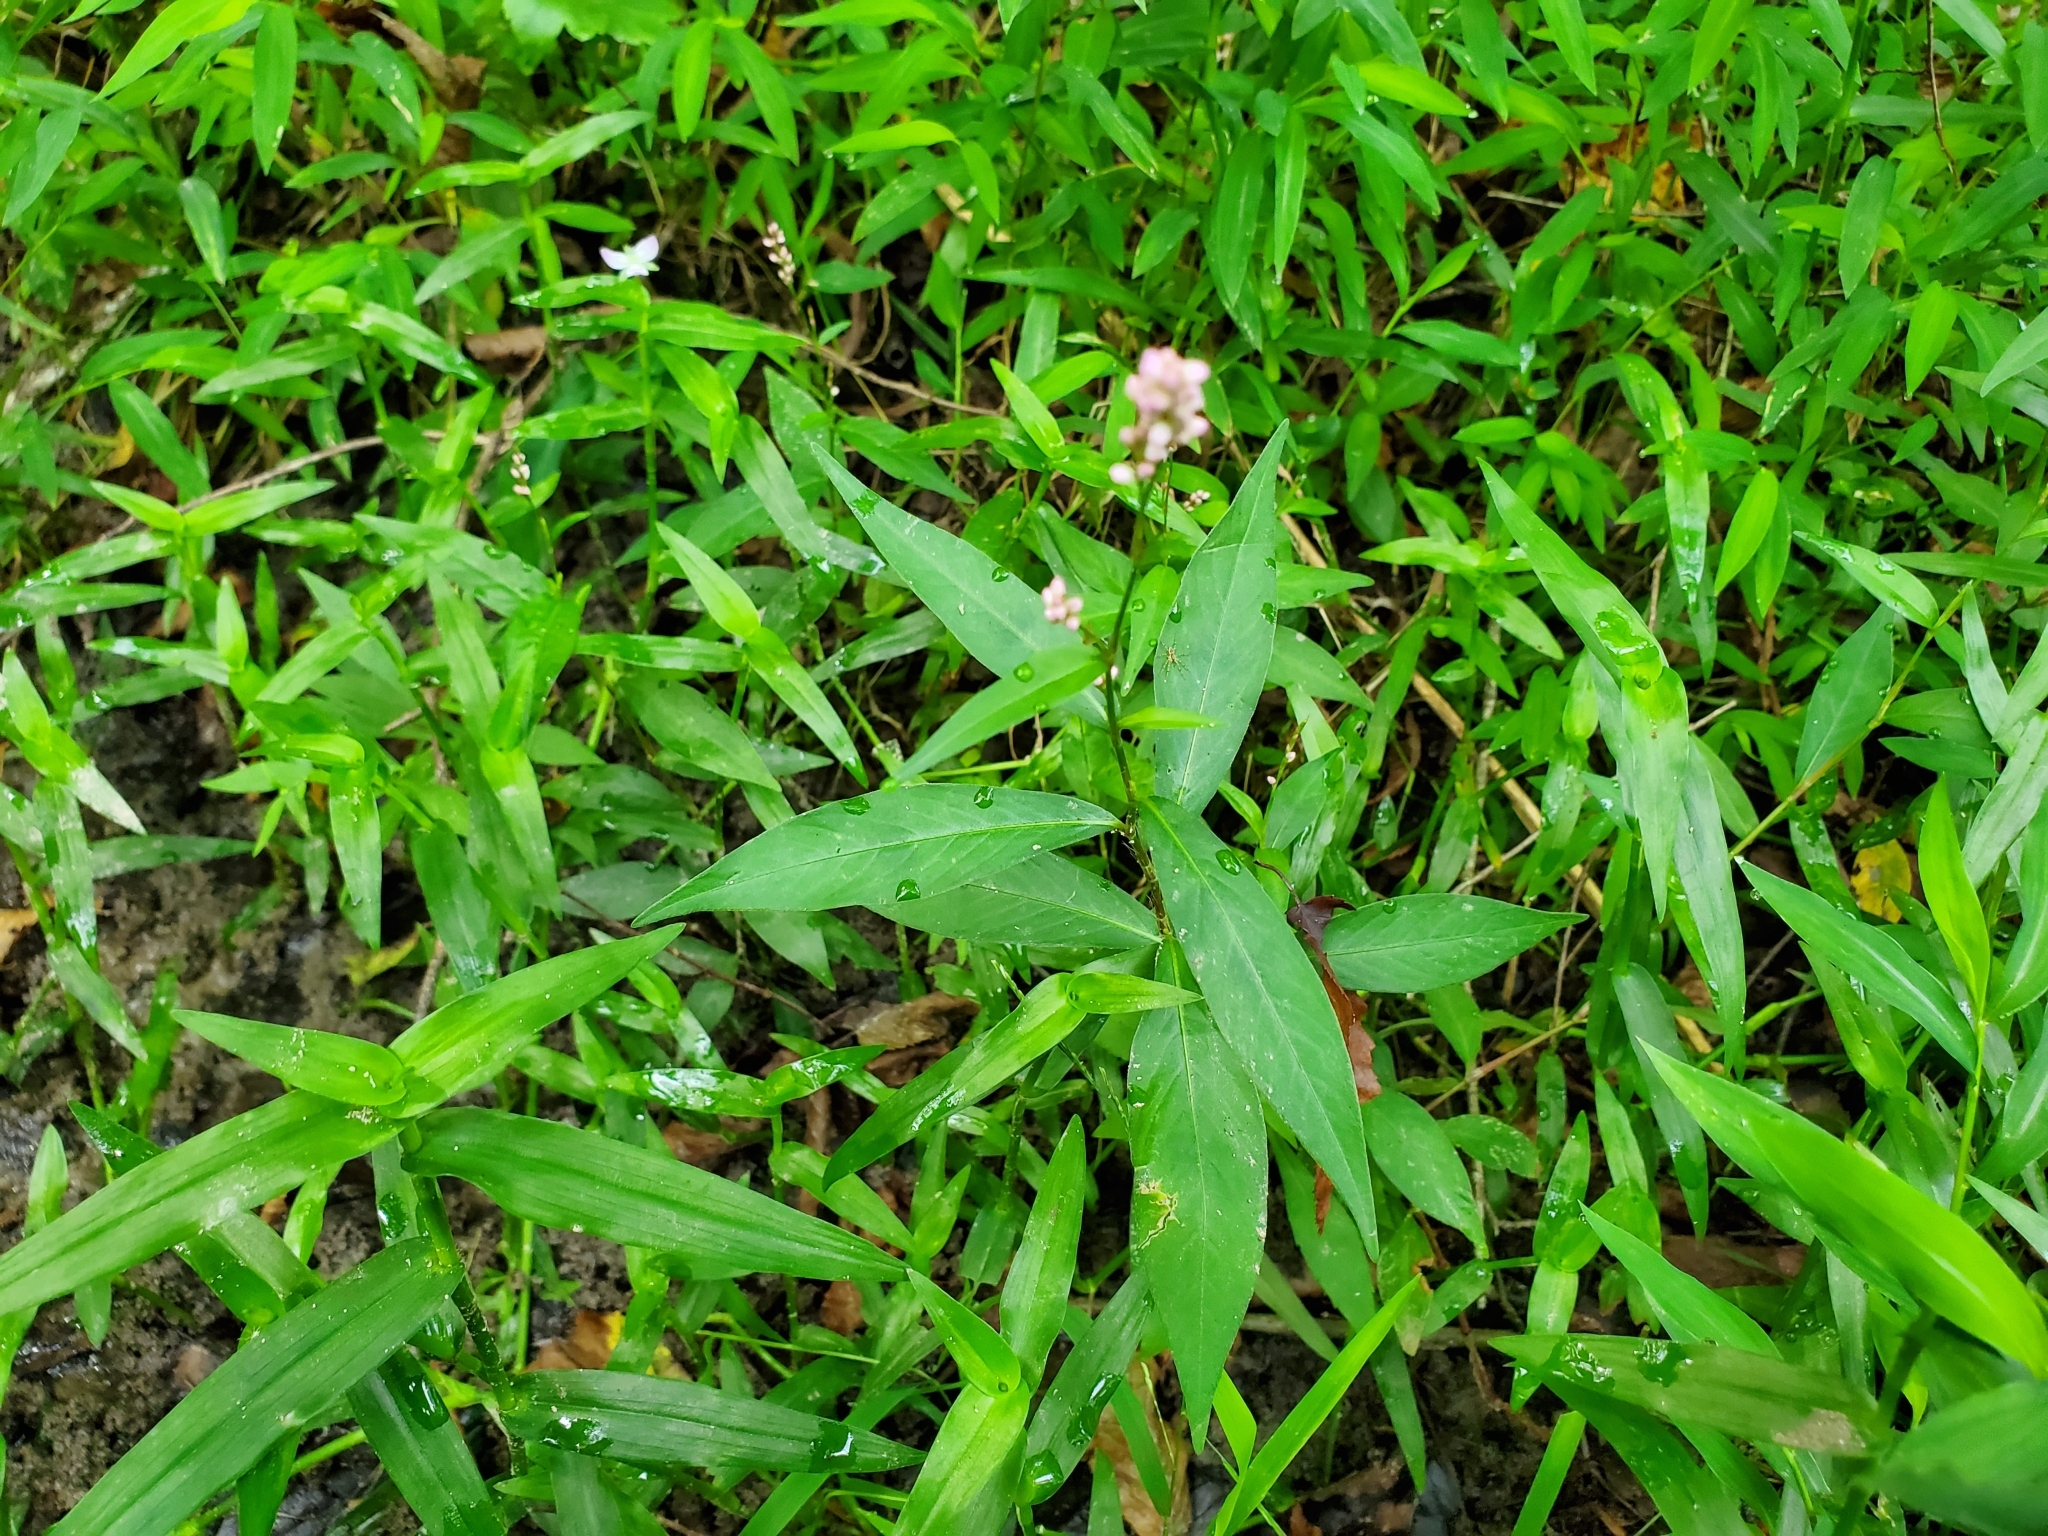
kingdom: Plantae
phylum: Tracheophyta
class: Magnoliopsida
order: Caryophyllales
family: Polygonaceae
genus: Persicaria
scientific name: Persicaria longiseta
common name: Bristly lady's-thumb
